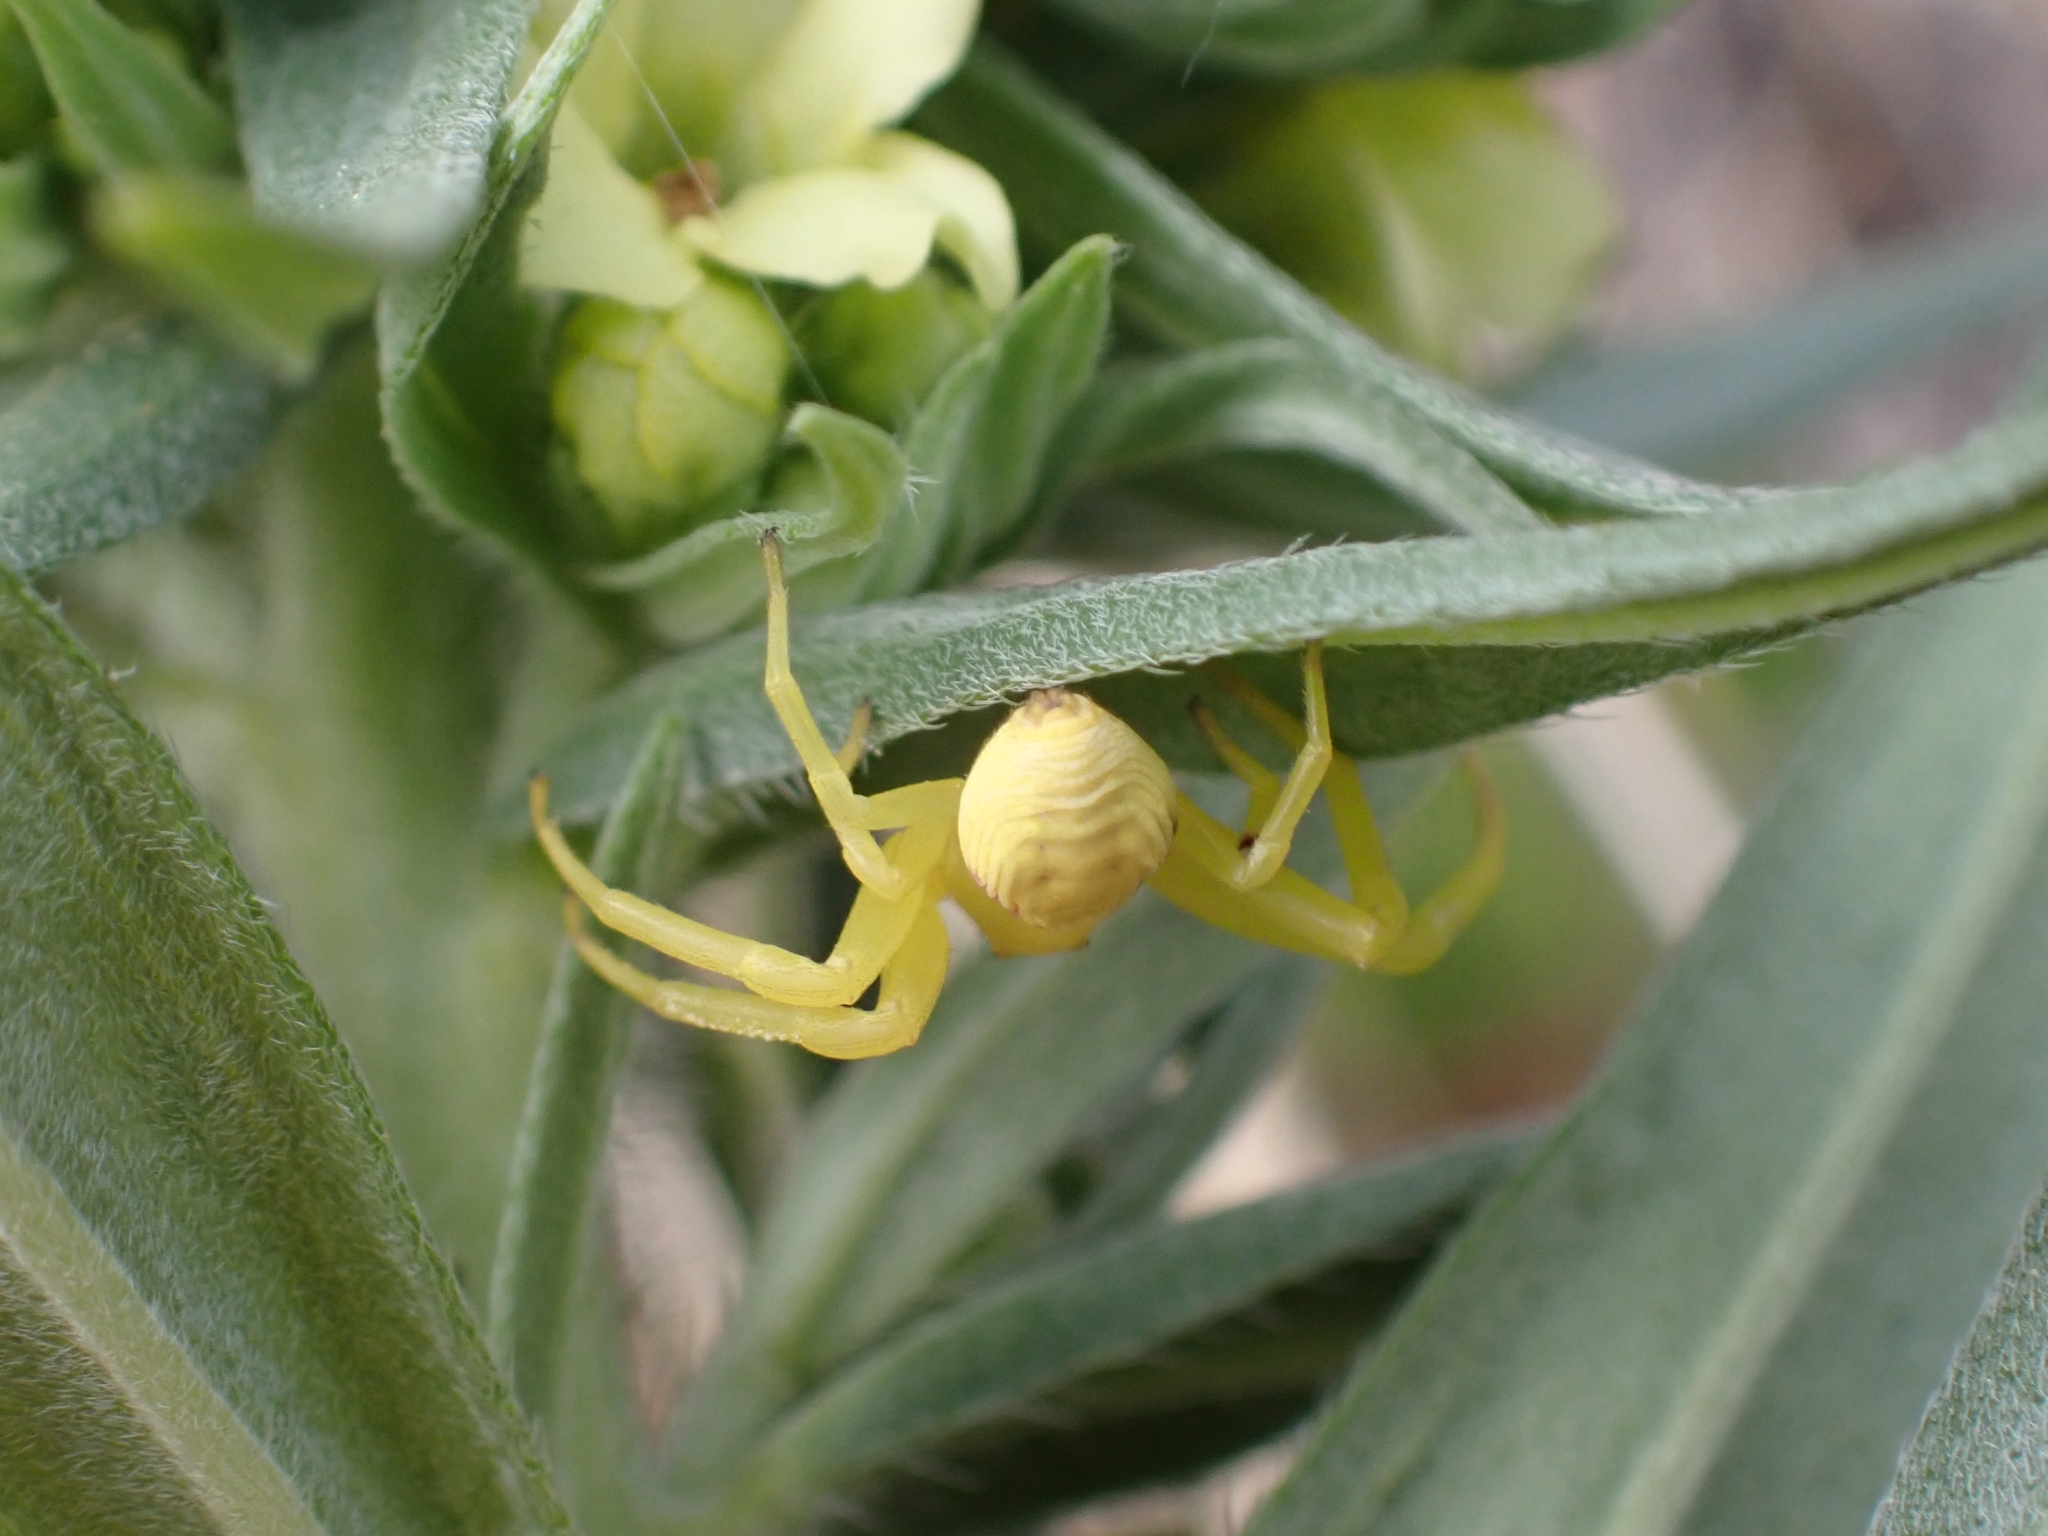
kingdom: Animalia
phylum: Arthropoda
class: Arachnida
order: Araneae
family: Thomisidae
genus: Misumena
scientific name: Misumena vatia
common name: Goldenrod crab spider
